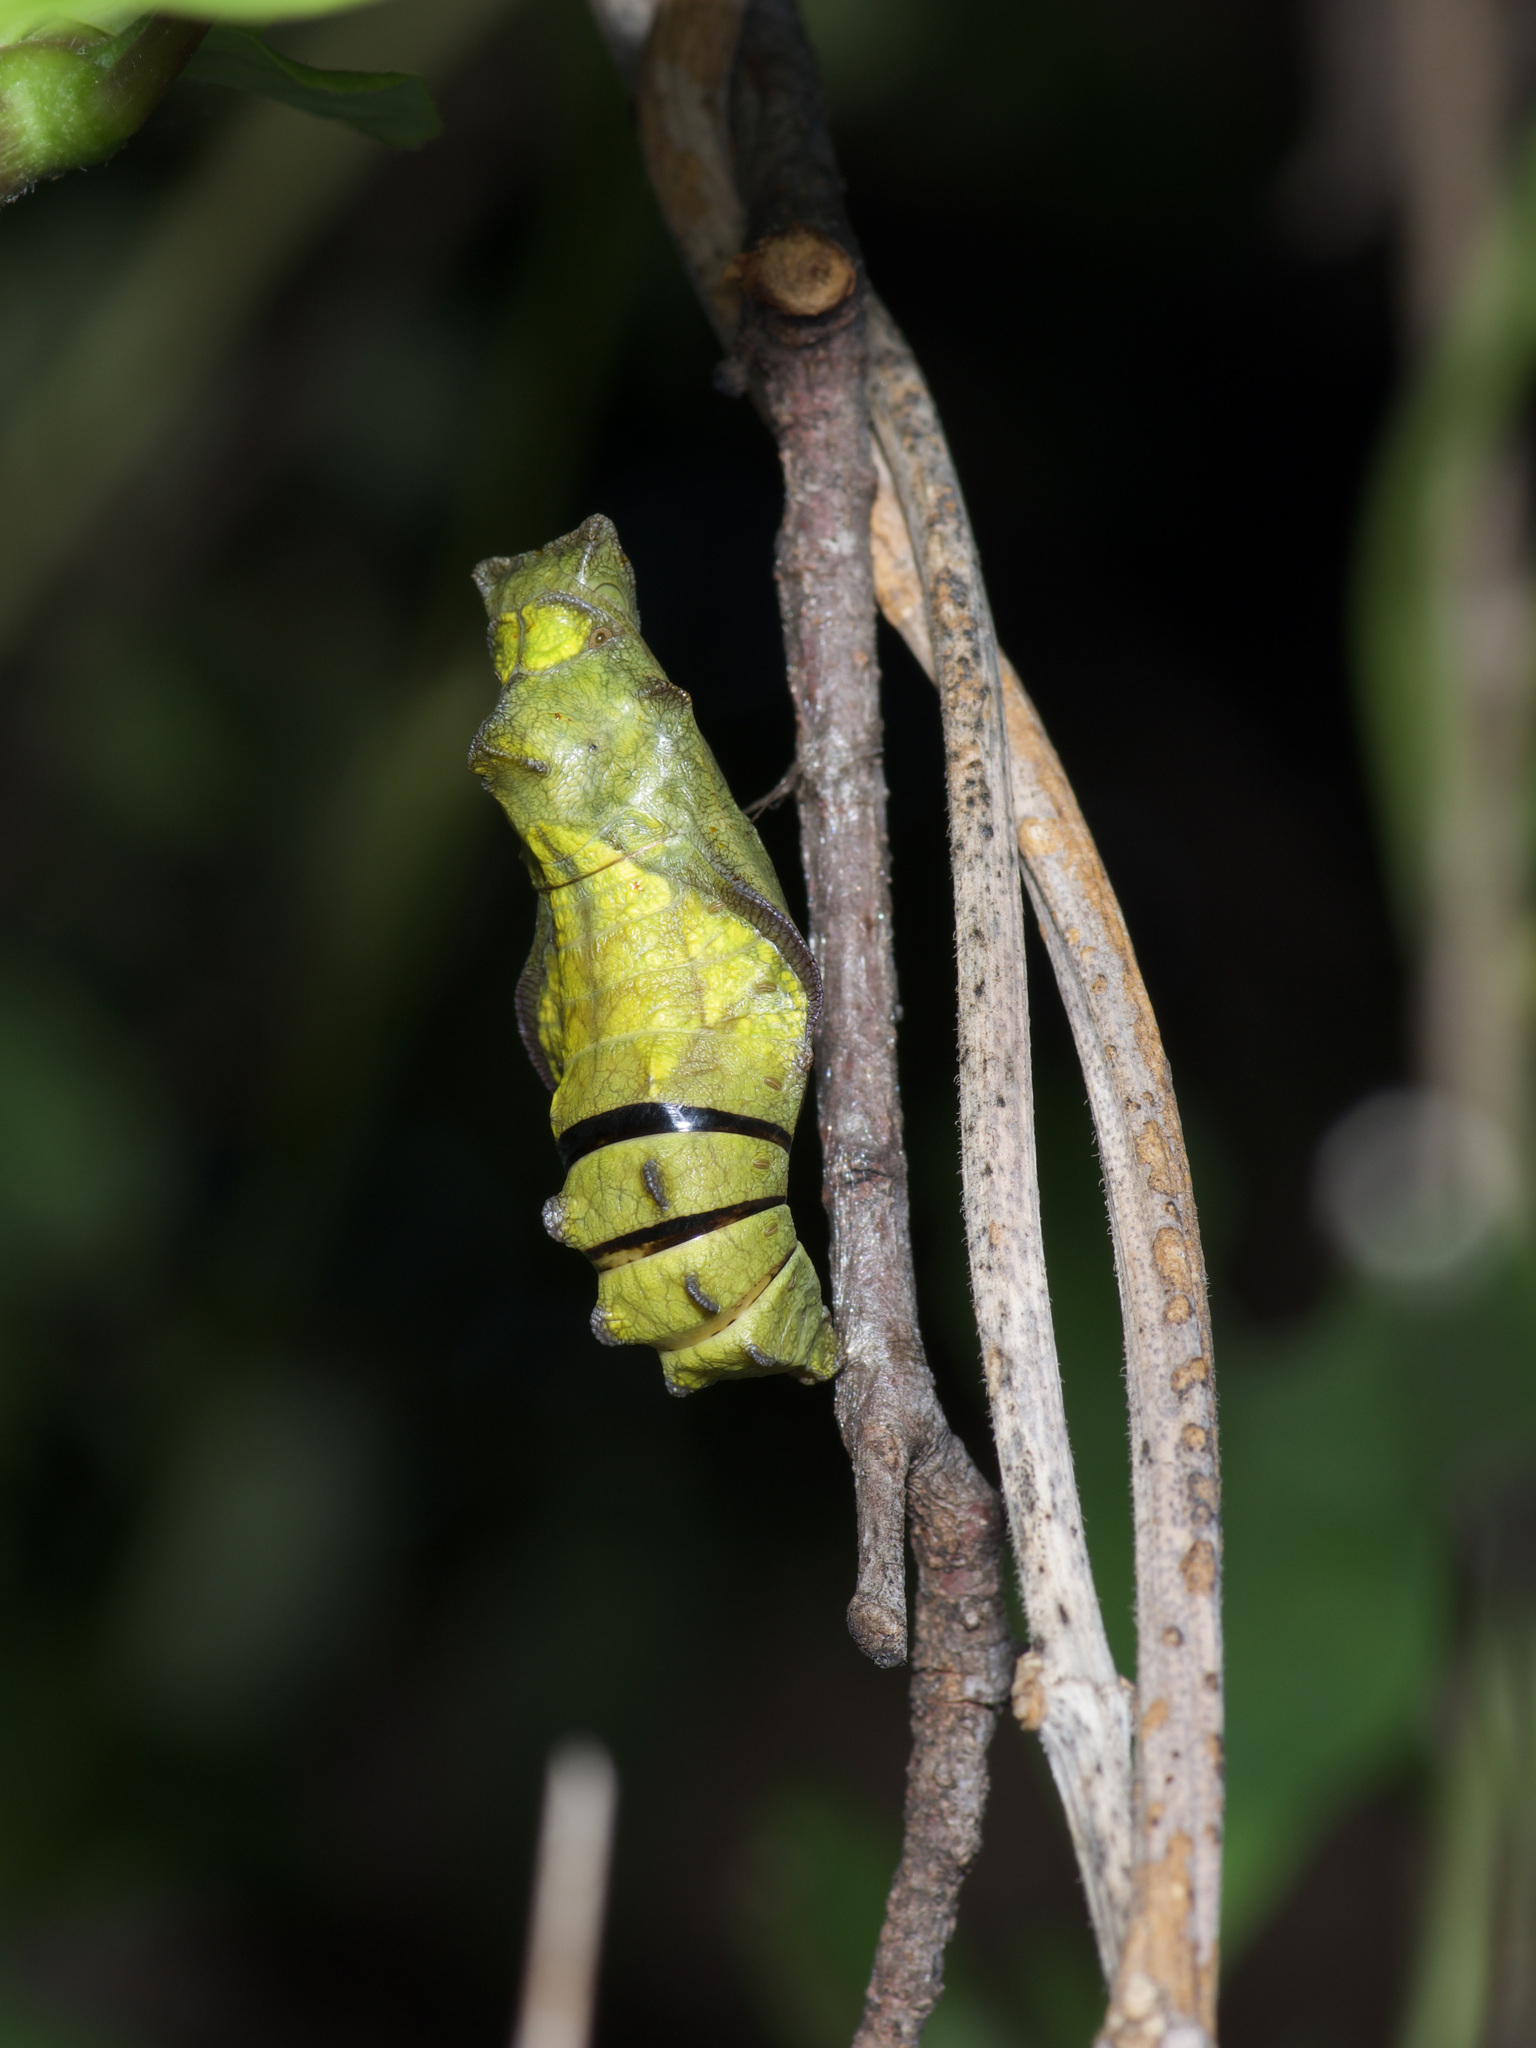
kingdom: Animalia
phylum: Arthropoda
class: Insecta
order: Lepidoptera
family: Papilionidae
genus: Battus
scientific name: Battus philenor
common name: Pipevine swallowtail
